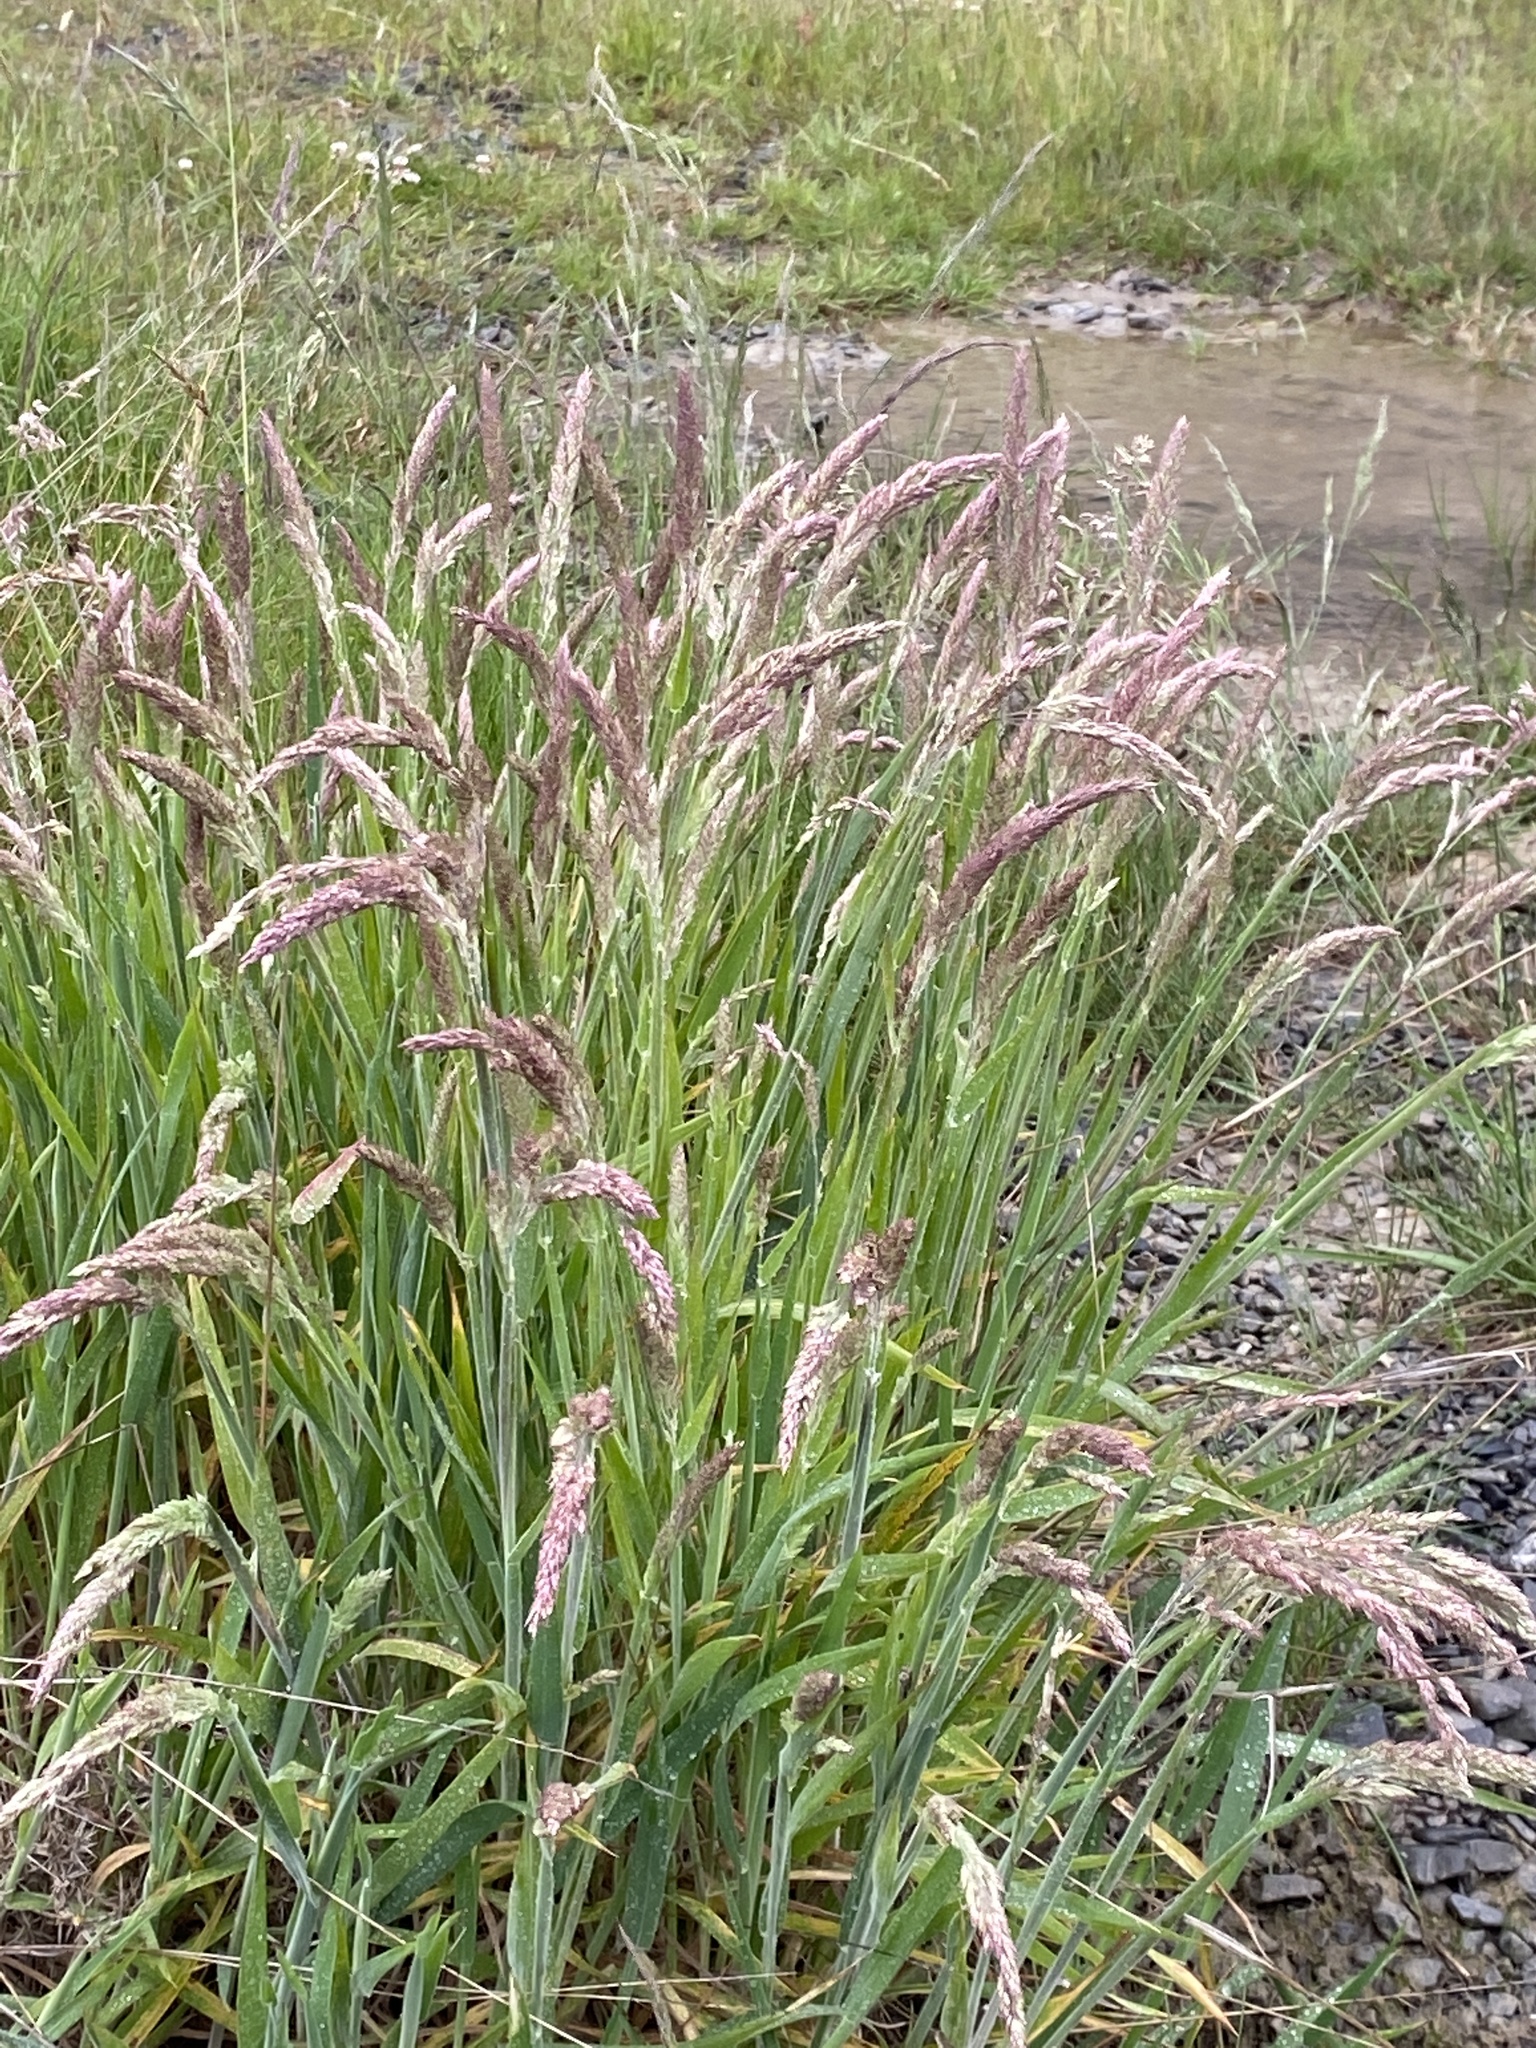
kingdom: Plantae
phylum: Tracheophyta
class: Liliopsida
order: Poales
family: Poaceae
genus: Holcus
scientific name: Holcus lanatus
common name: Yorkshire-fog
